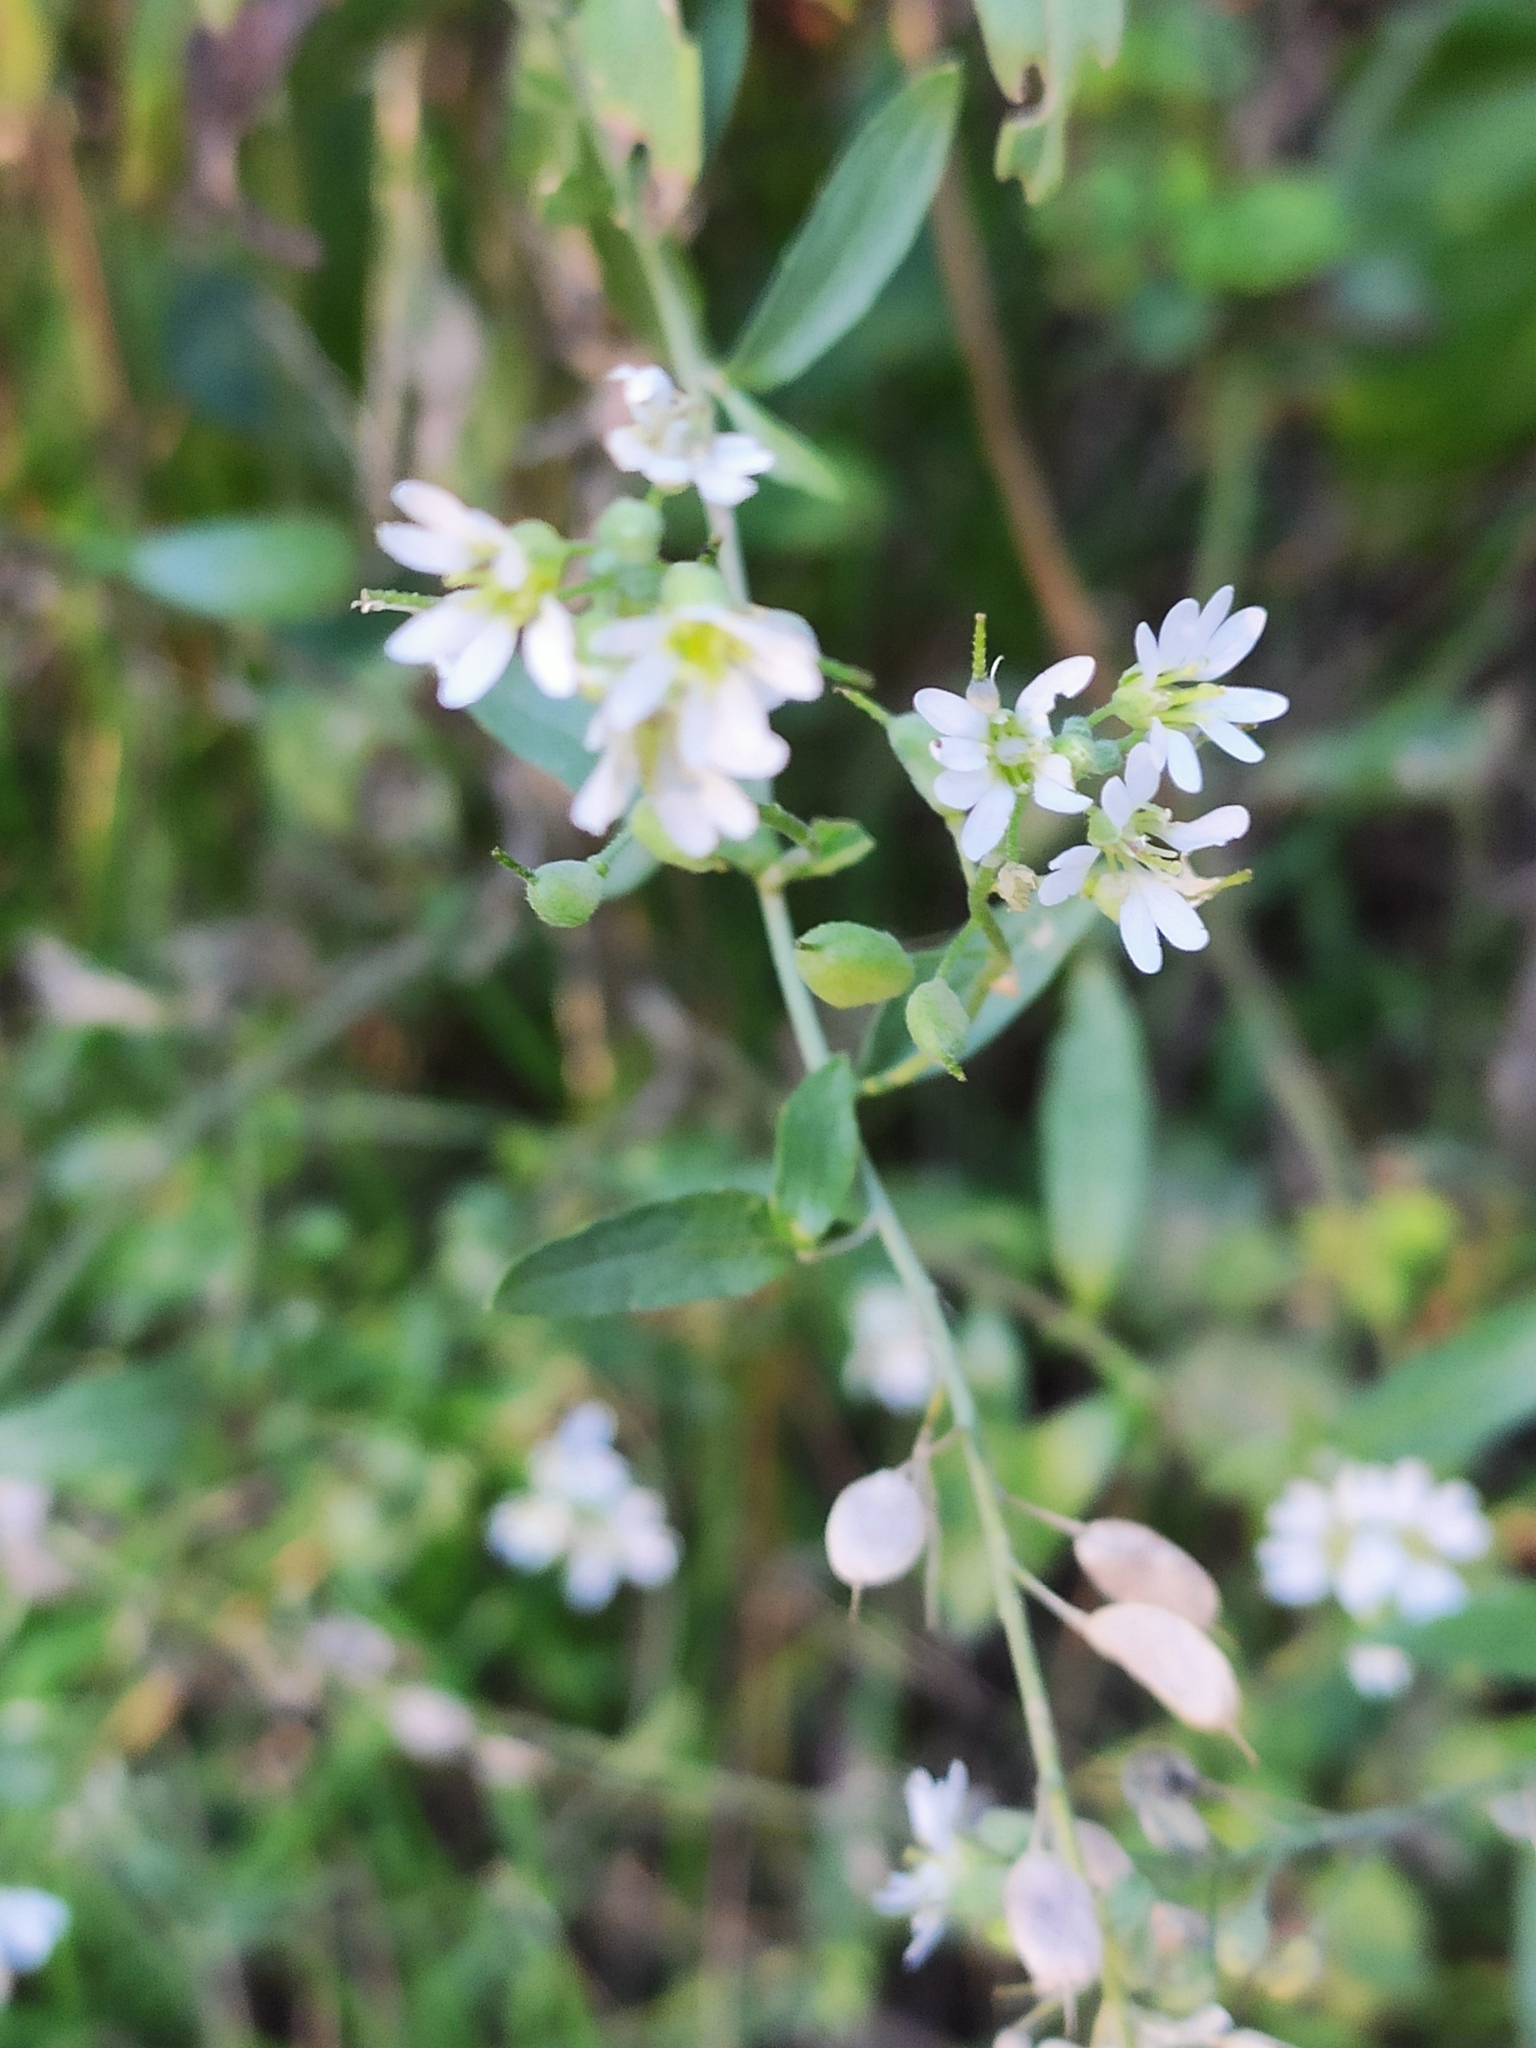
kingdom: Plantae
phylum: Tracheophyta
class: Magnoliopsida
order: Brassicales
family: Brassicaceae
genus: Berteroa
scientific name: Berteroa incana
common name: Hoary alison
